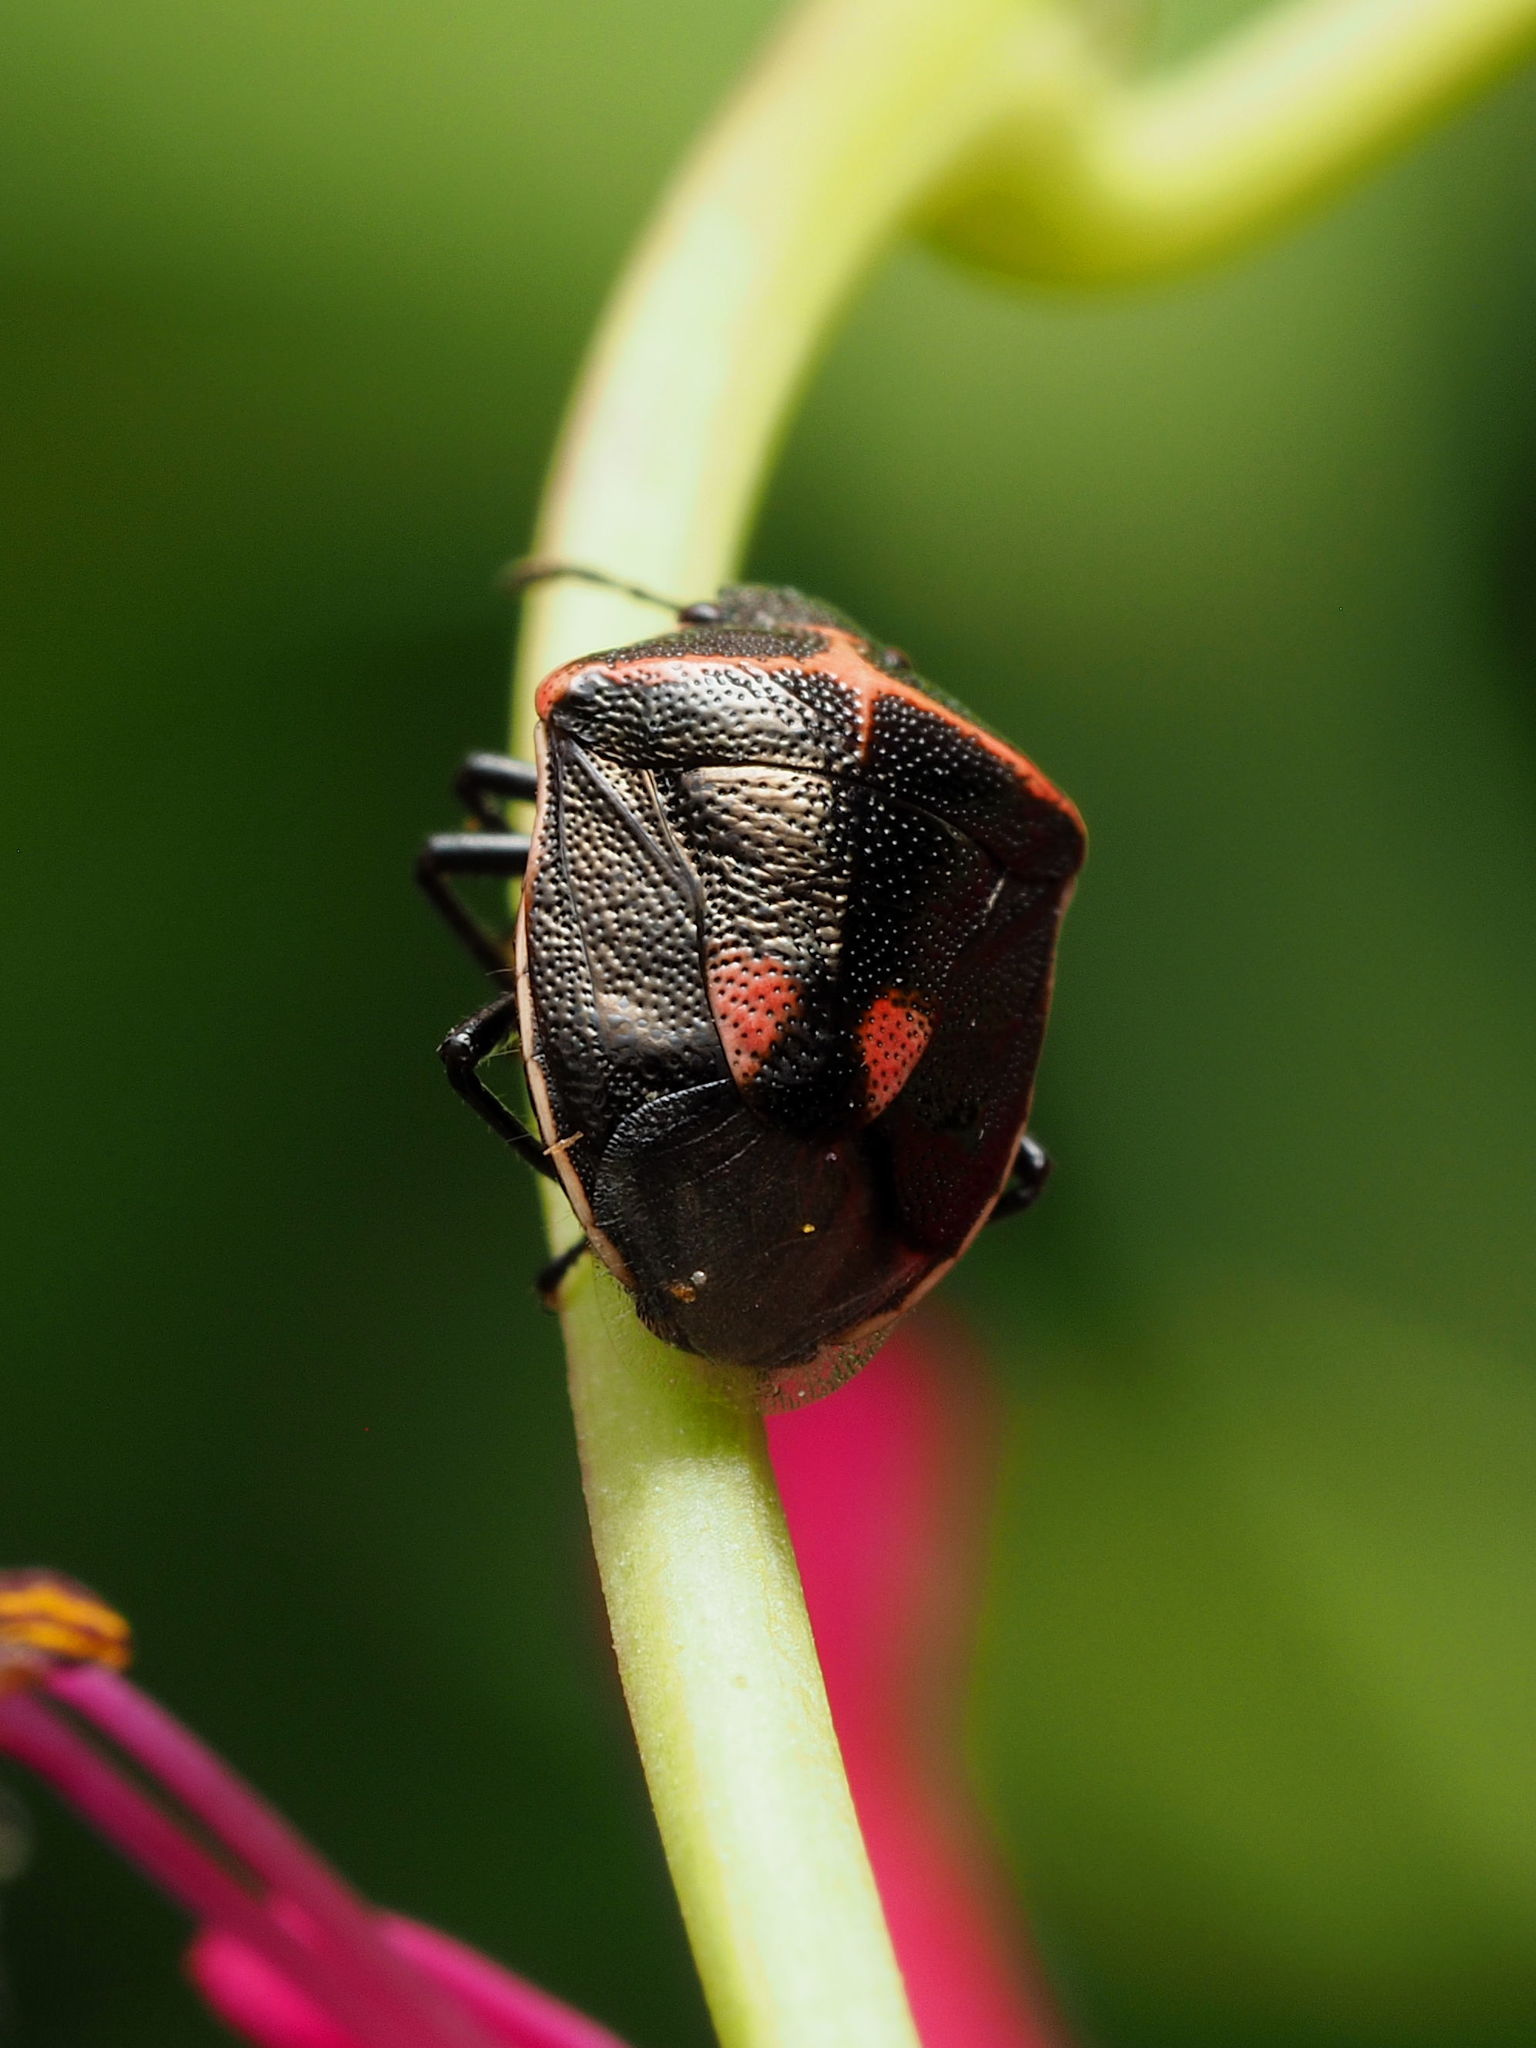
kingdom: Animalia
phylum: Arthropoda
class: Insecta
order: Hemiptera
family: Pentatomidae
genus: Cosmopepla
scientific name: Cosmopepla lintneriana
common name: Twice-stabbed stink bug
